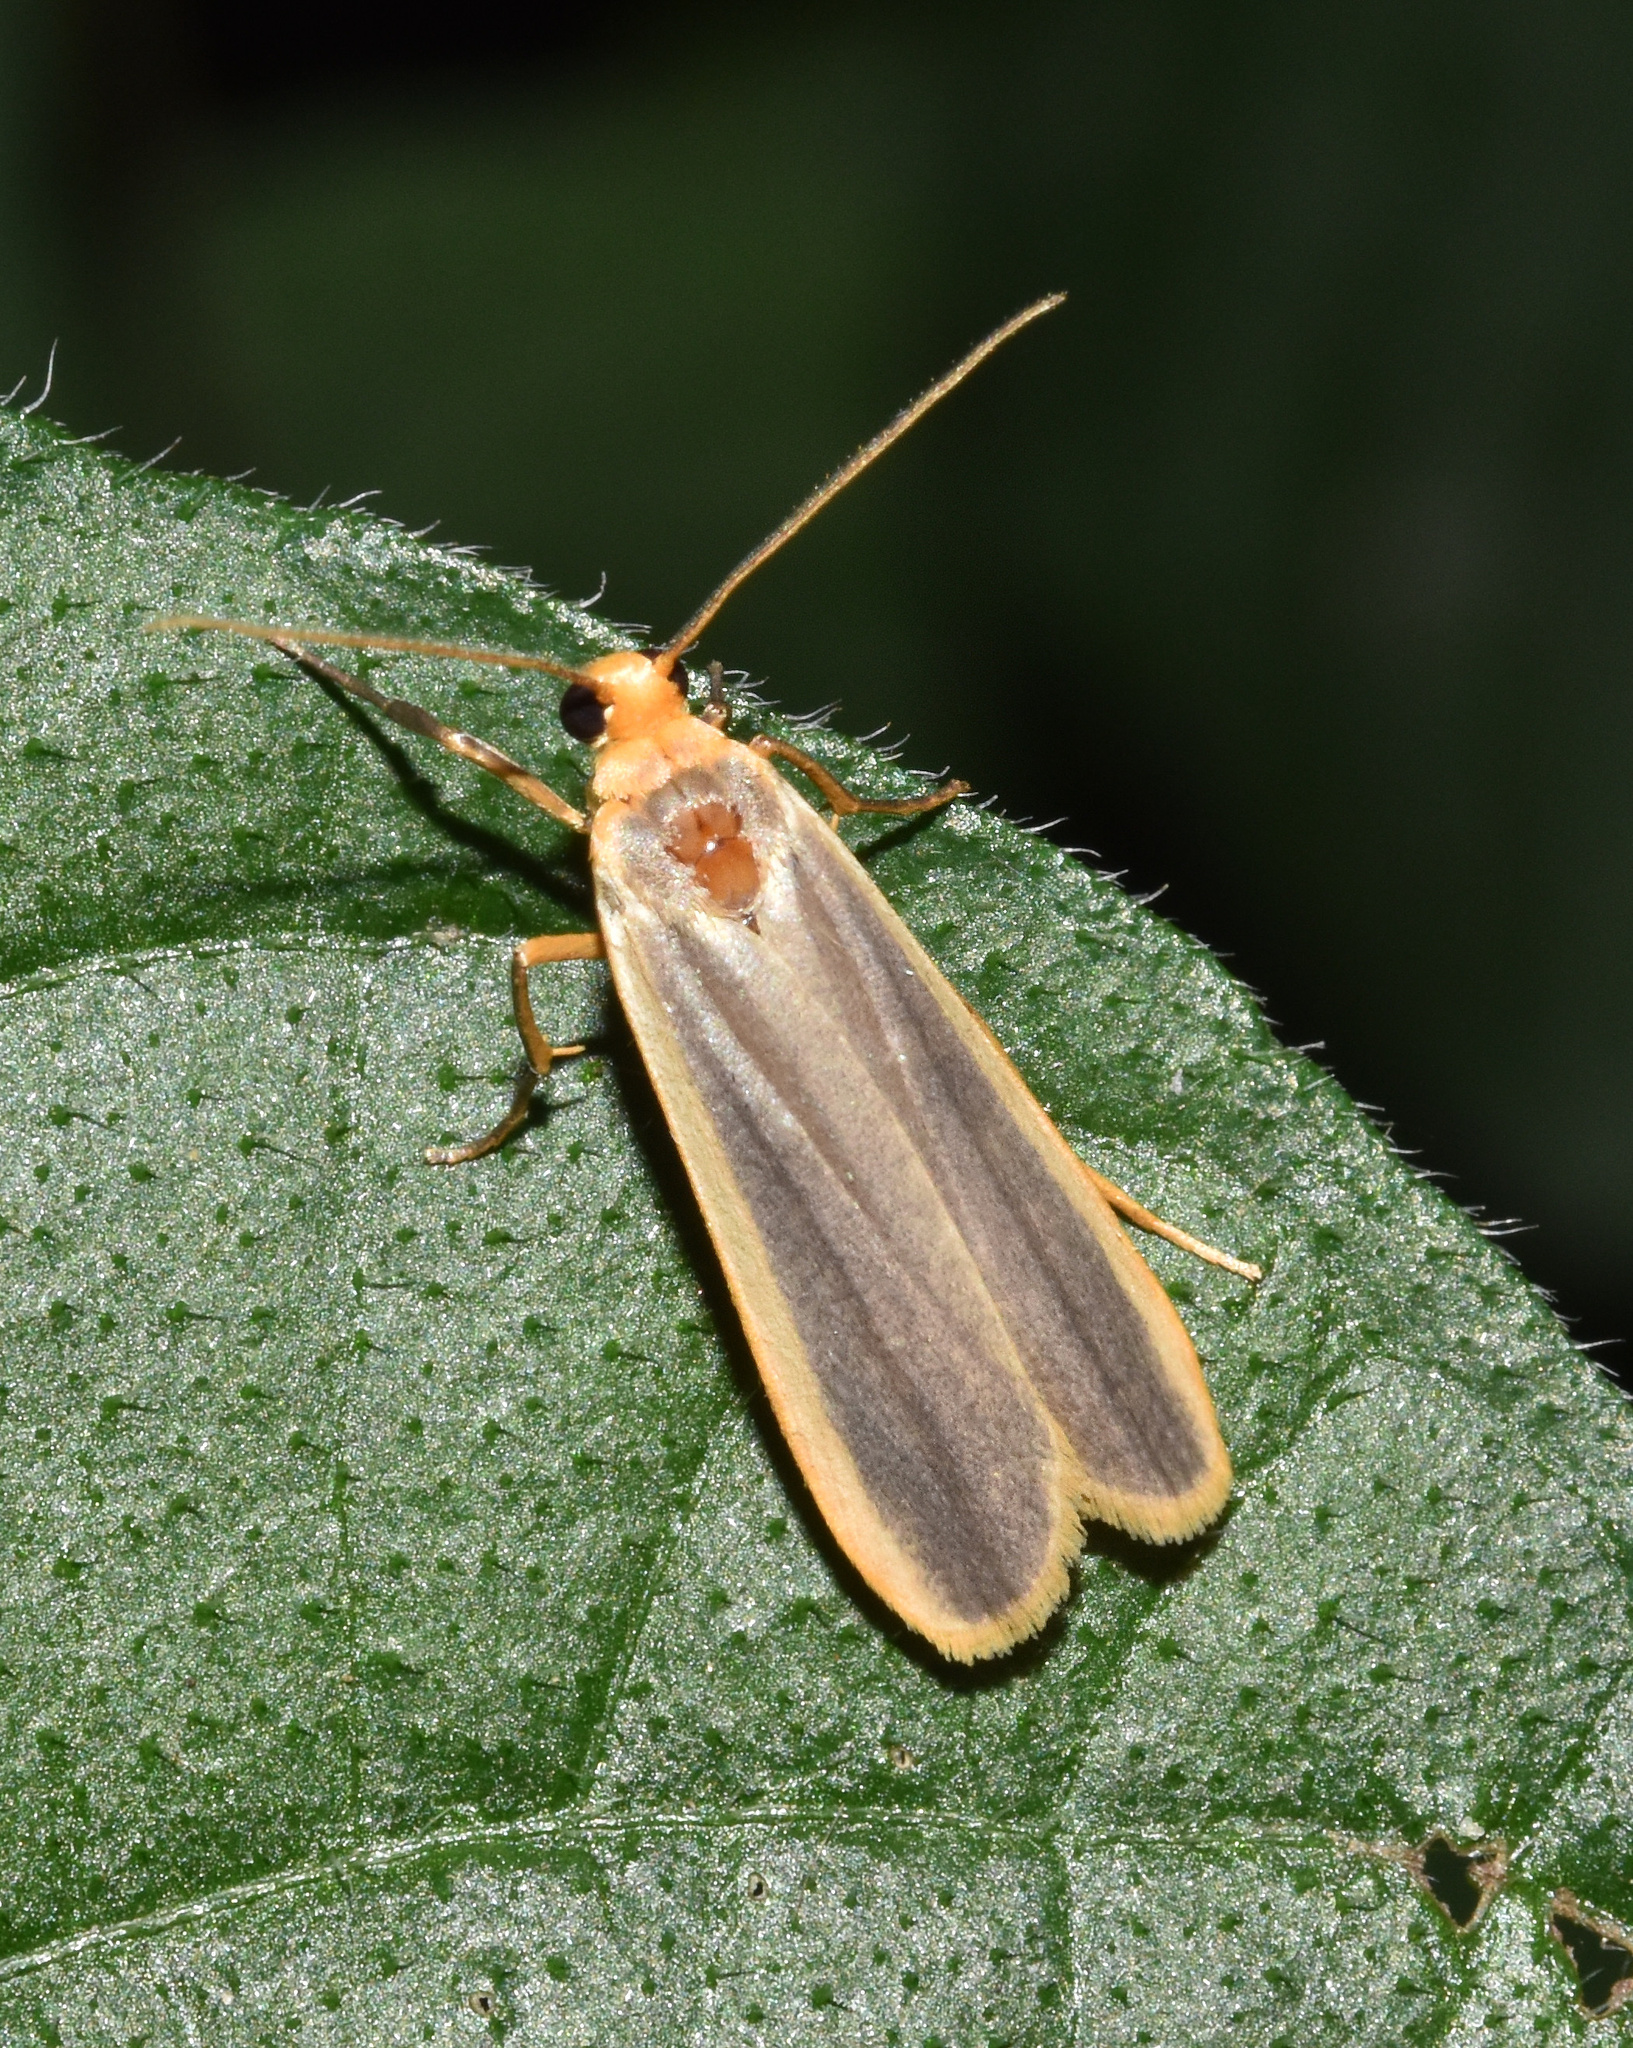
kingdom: Animalia
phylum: Arthropoda
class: Insecta
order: Lepidoptera
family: Erebidae
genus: Brunia
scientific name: Brunia vicaria
